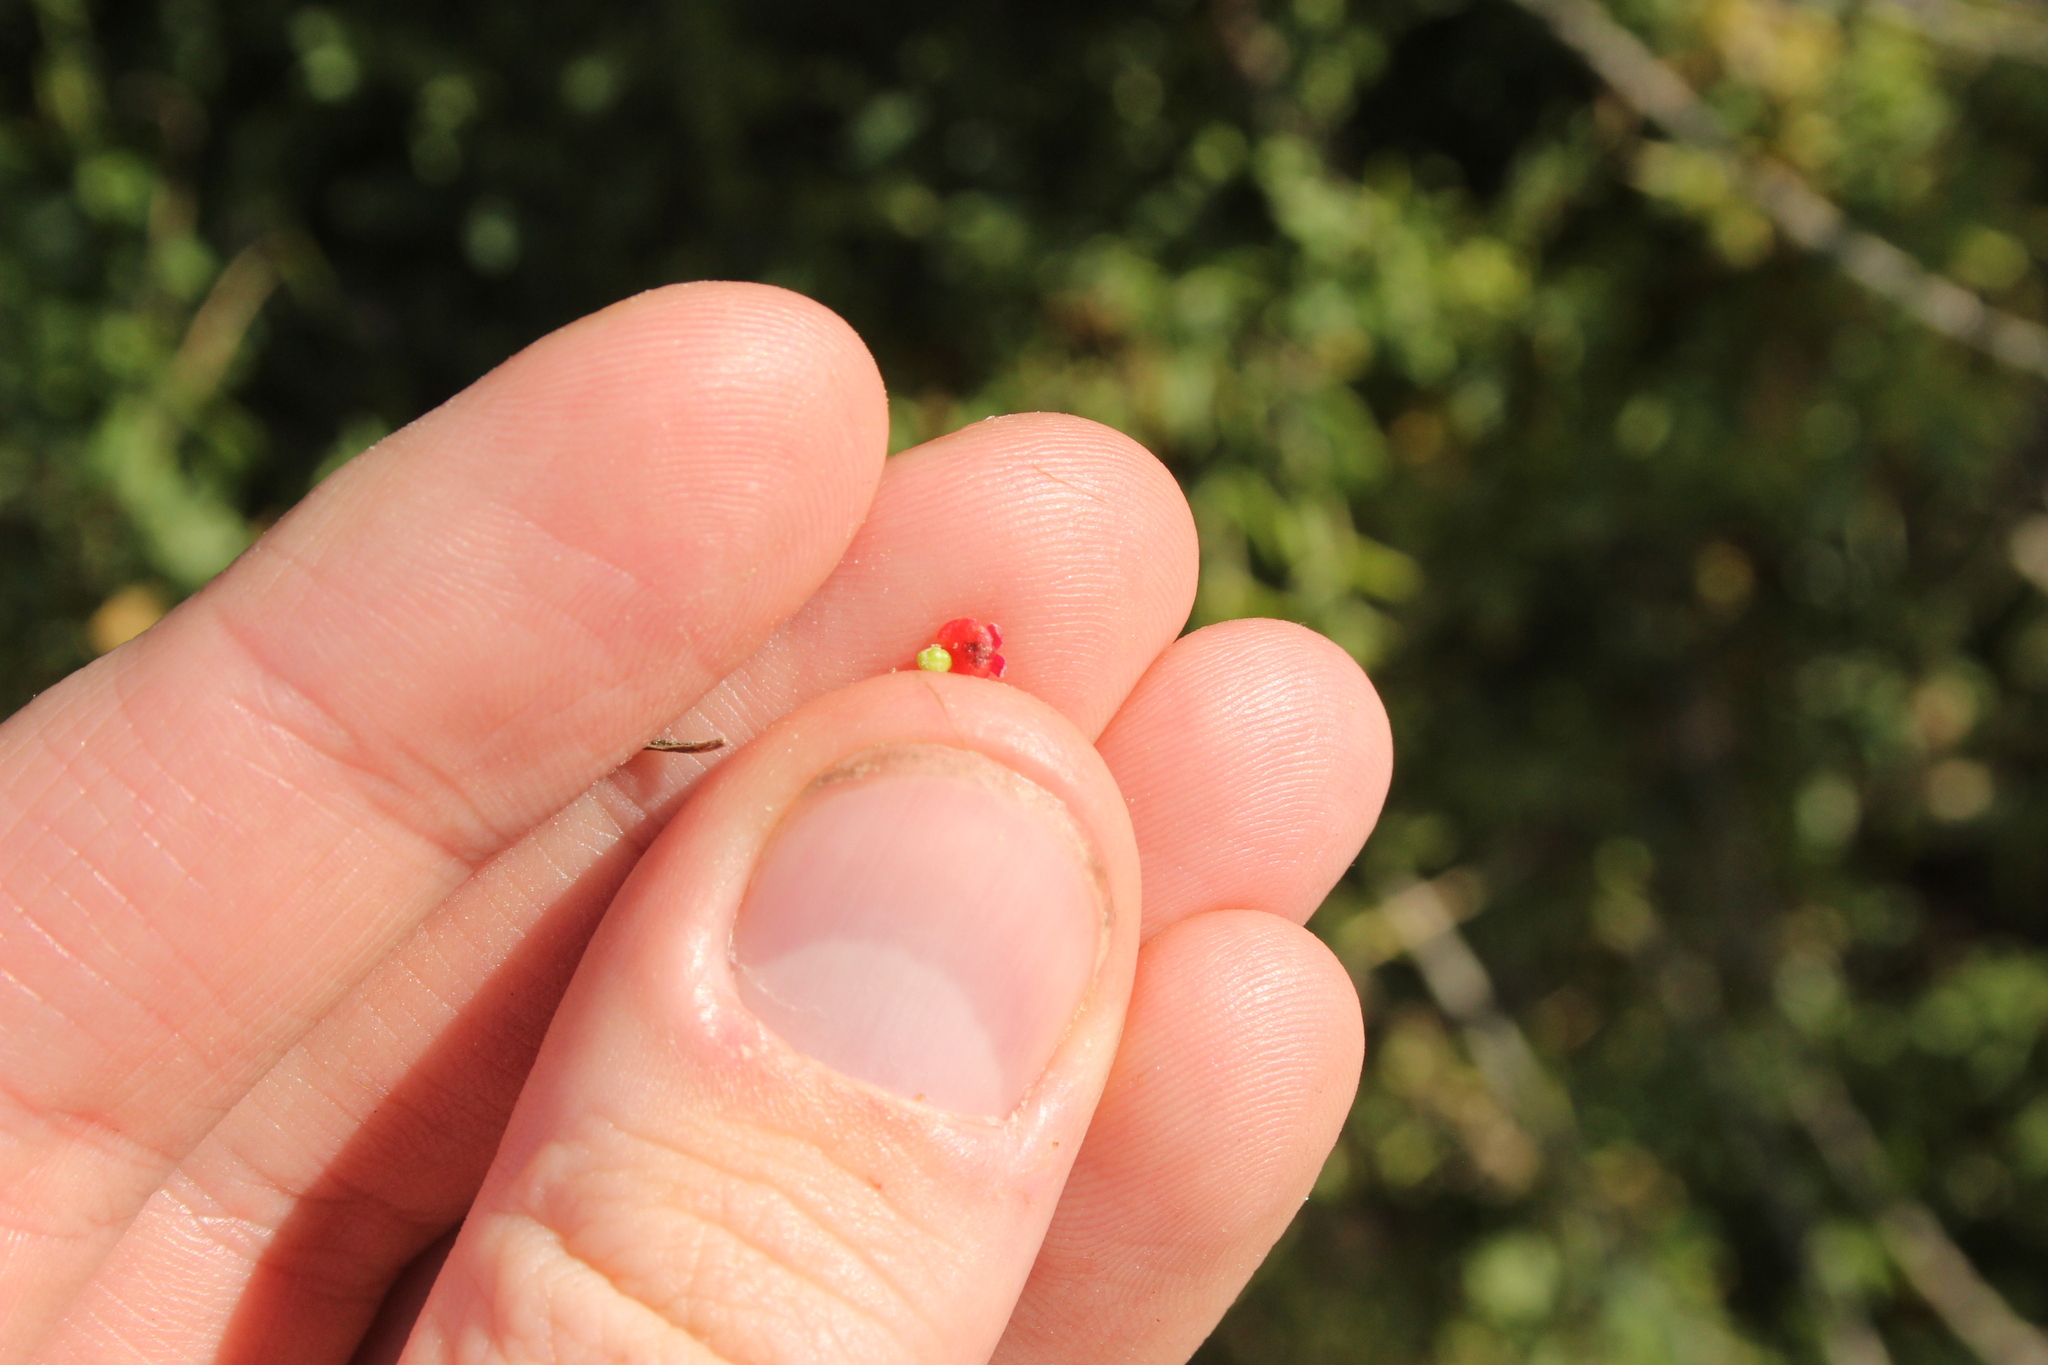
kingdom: Plantae
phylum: Tracheophyta
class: Magnoliopsida
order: Caryophyllales
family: Amaranthaceae
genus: Chenopodium
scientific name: Chenopodium nutans
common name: Climbing-saltbush
